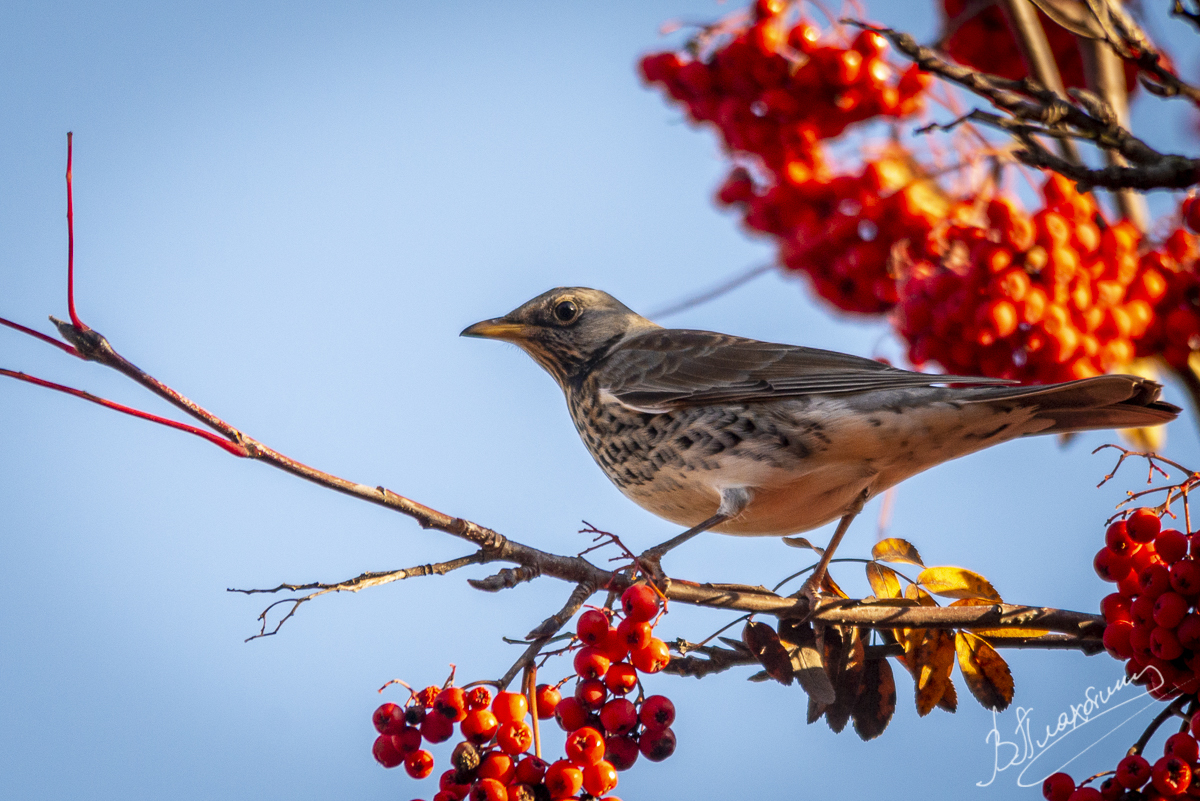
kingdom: Animalia
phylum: Chordata
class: Aves
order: Passeriformes
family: Turdidae
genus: Turdus
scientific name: Turdus pilaris
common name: Fieldfare
